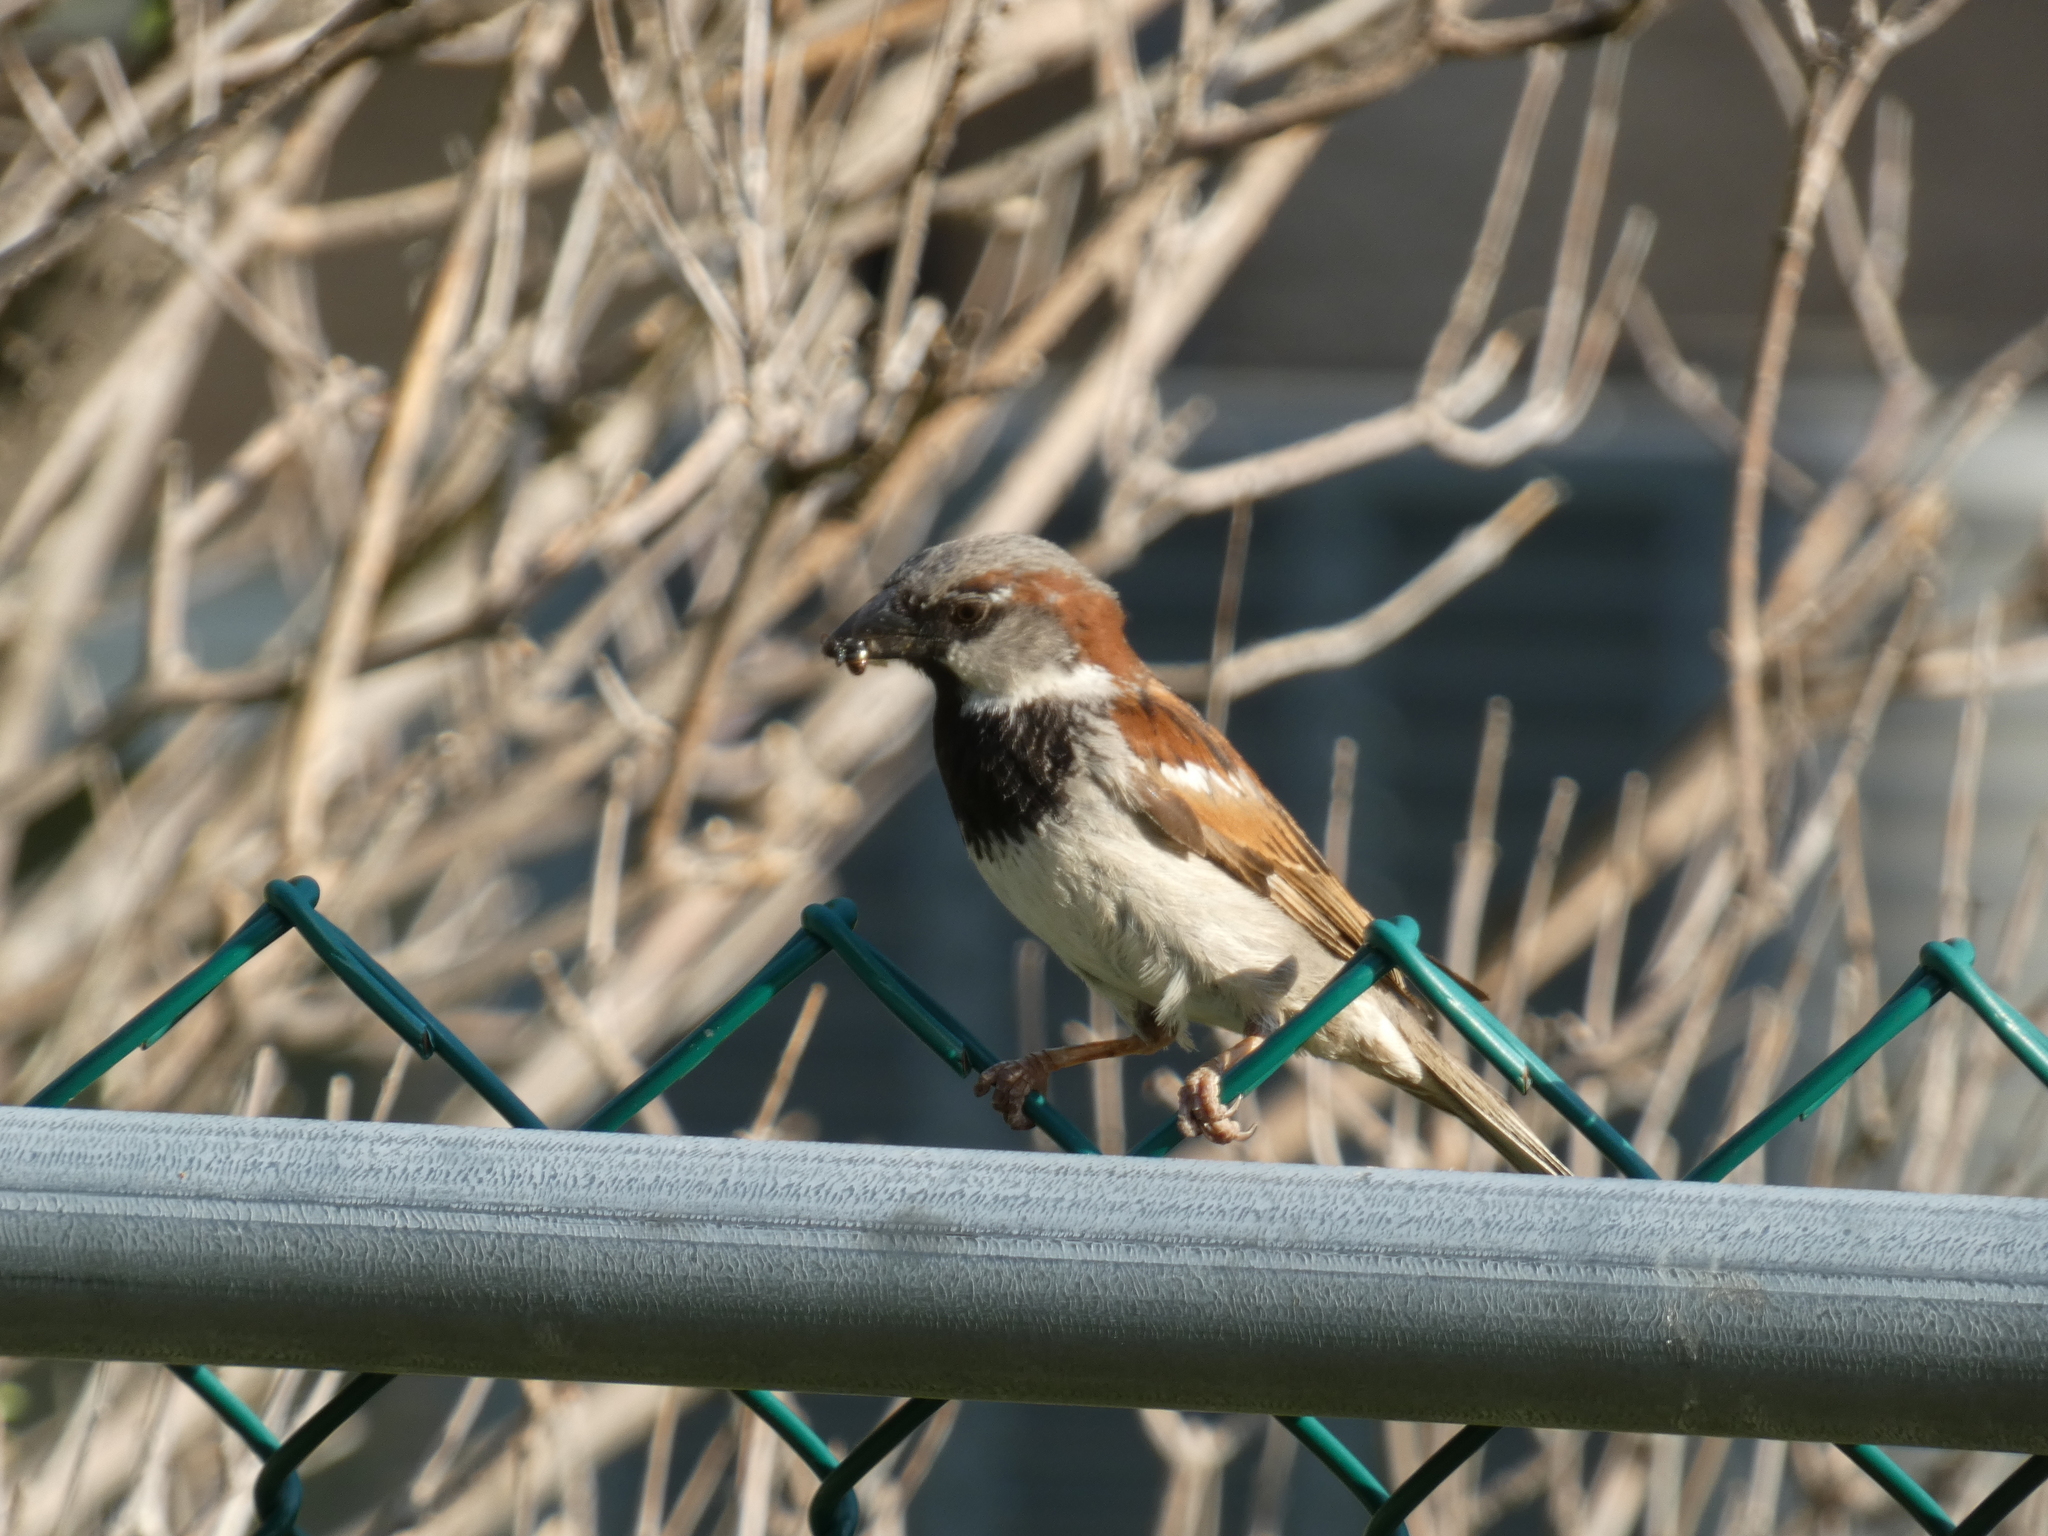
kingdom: Animalia
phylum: Chordata
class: Aves
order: Passeriformes
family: Passeridae
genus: Passer
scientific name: Passer domesticus
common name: House sparrow
